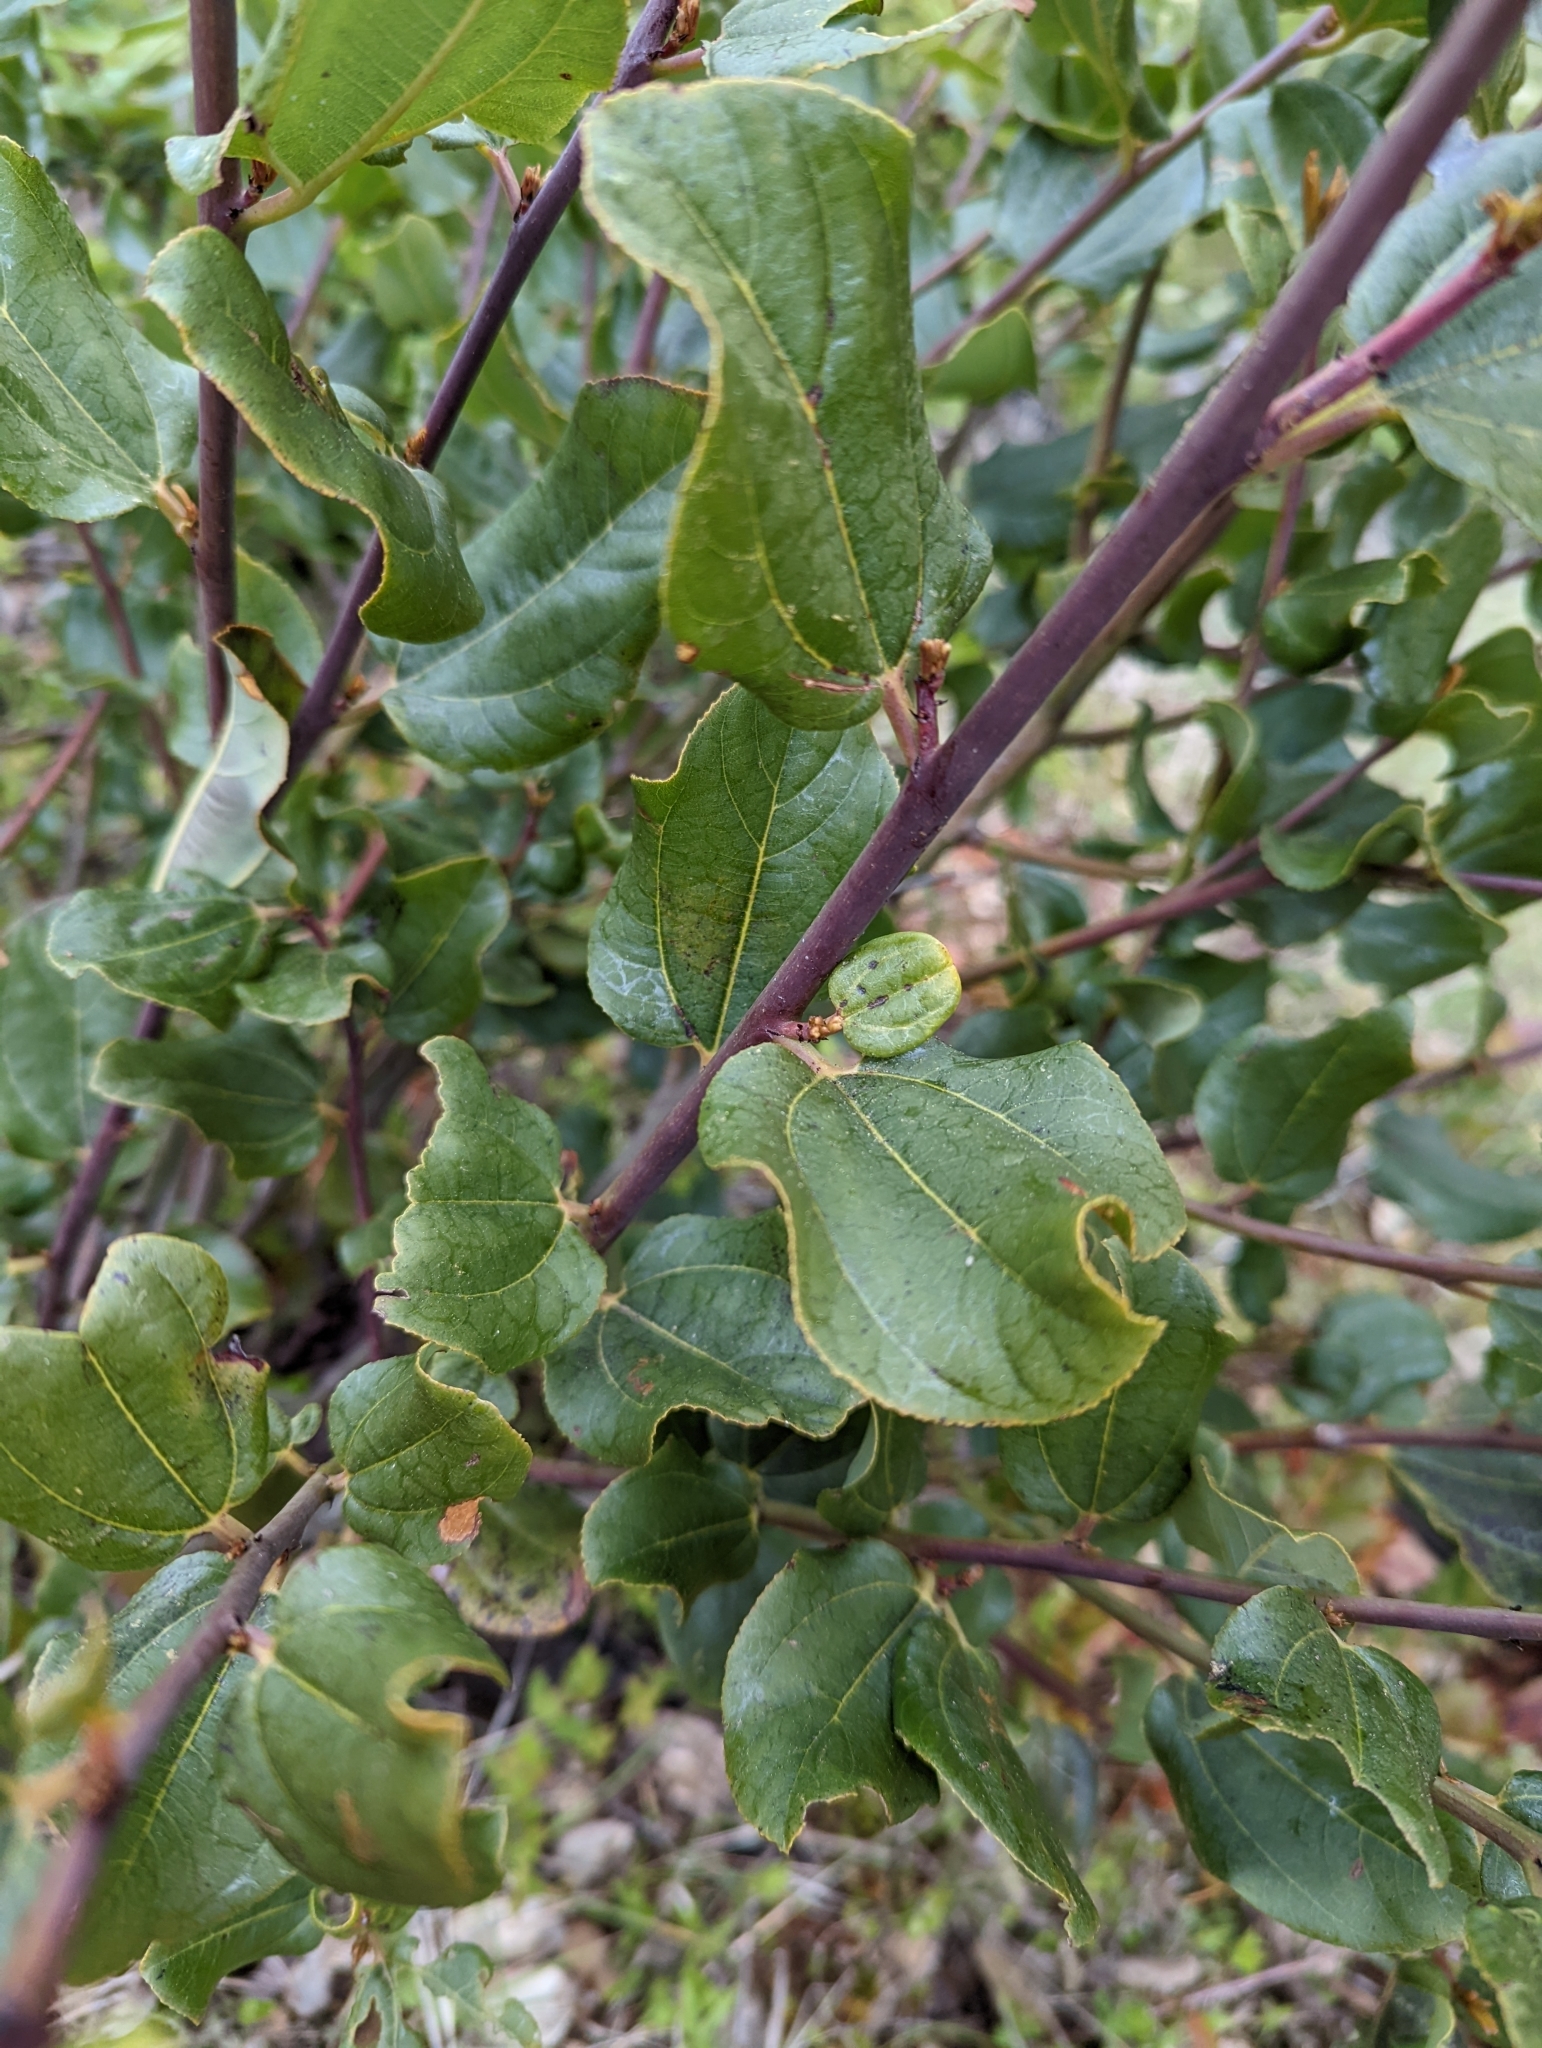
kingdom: Plantae
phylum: Tracheophyta
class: Magnoliopsida
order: Rosales
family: Rhamnaceae
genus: Ceanothus
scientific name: Ceanothus velutinus
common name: Snowbrush
